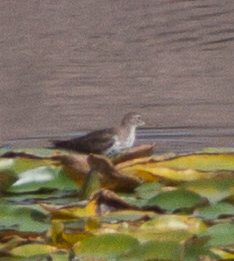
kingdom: Animalia
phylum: Chordata
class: Aves
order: Charadriiformes
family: Scolopacidae
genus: Actitis
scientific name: Actitis macularius
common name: Spotted sandpiper
